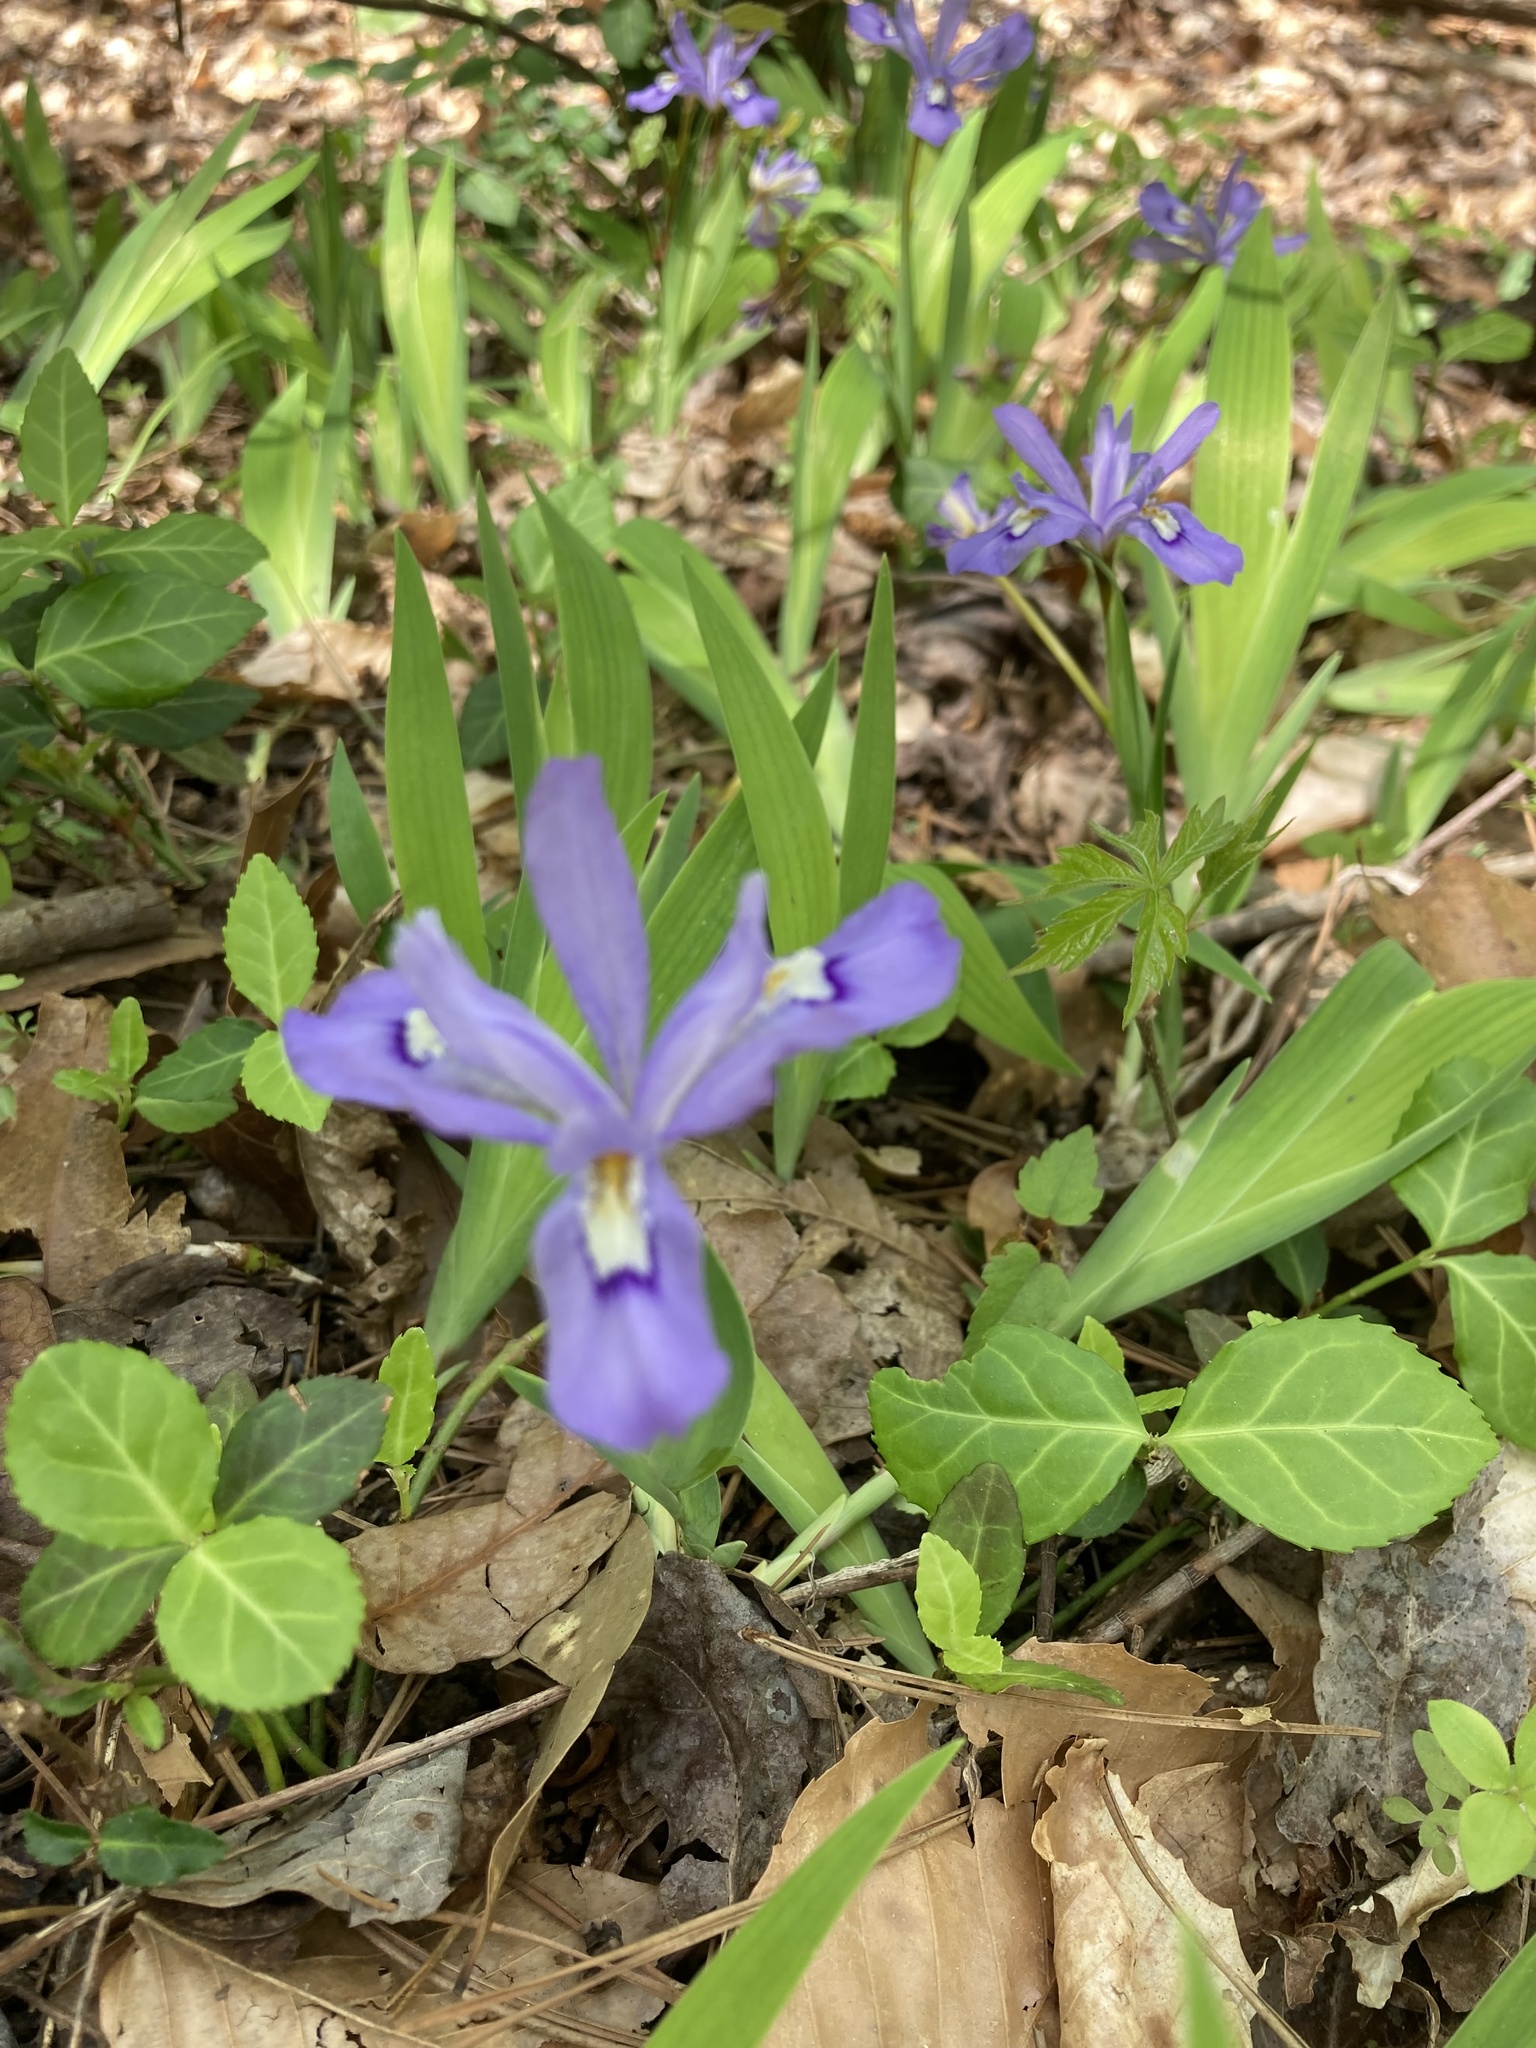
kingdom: Plantae
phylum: Tracheophyta
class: Liliopsida
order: Asparagales
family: Iridaceae
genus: Iris
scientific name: Iris cristata
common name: Crested iris
